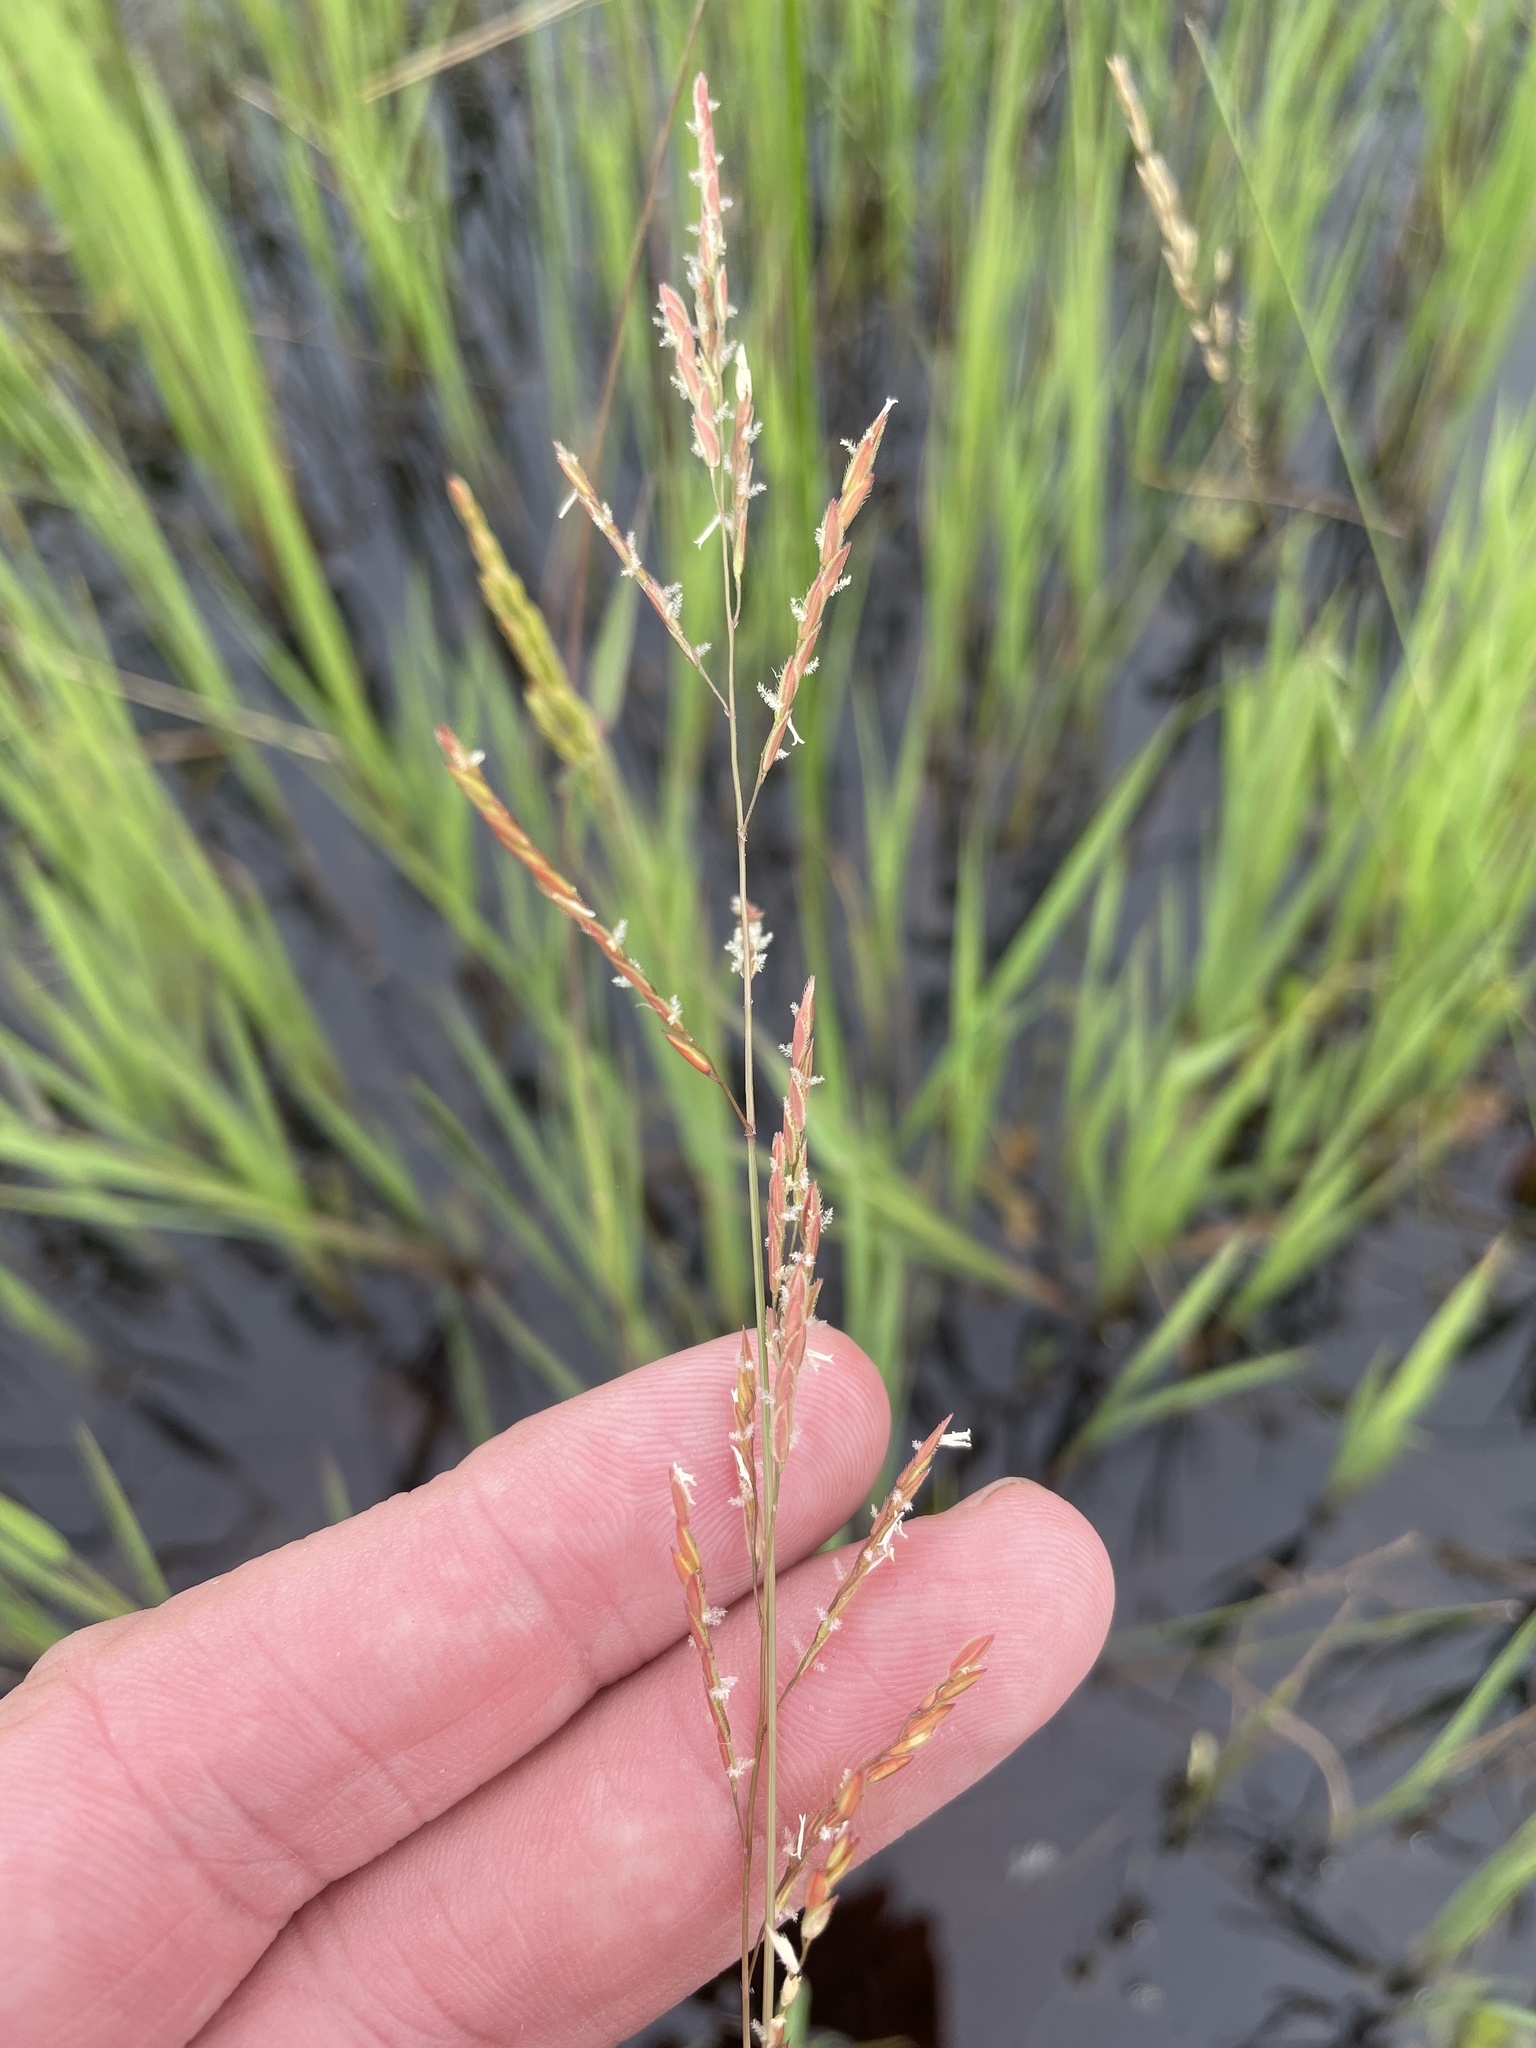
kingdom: Plantae
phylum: Tracheophyta
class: Liliopsida
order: Poales
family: Poaceae
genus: Leersia
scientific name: Leersia hexandra
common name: Southern cut grass
